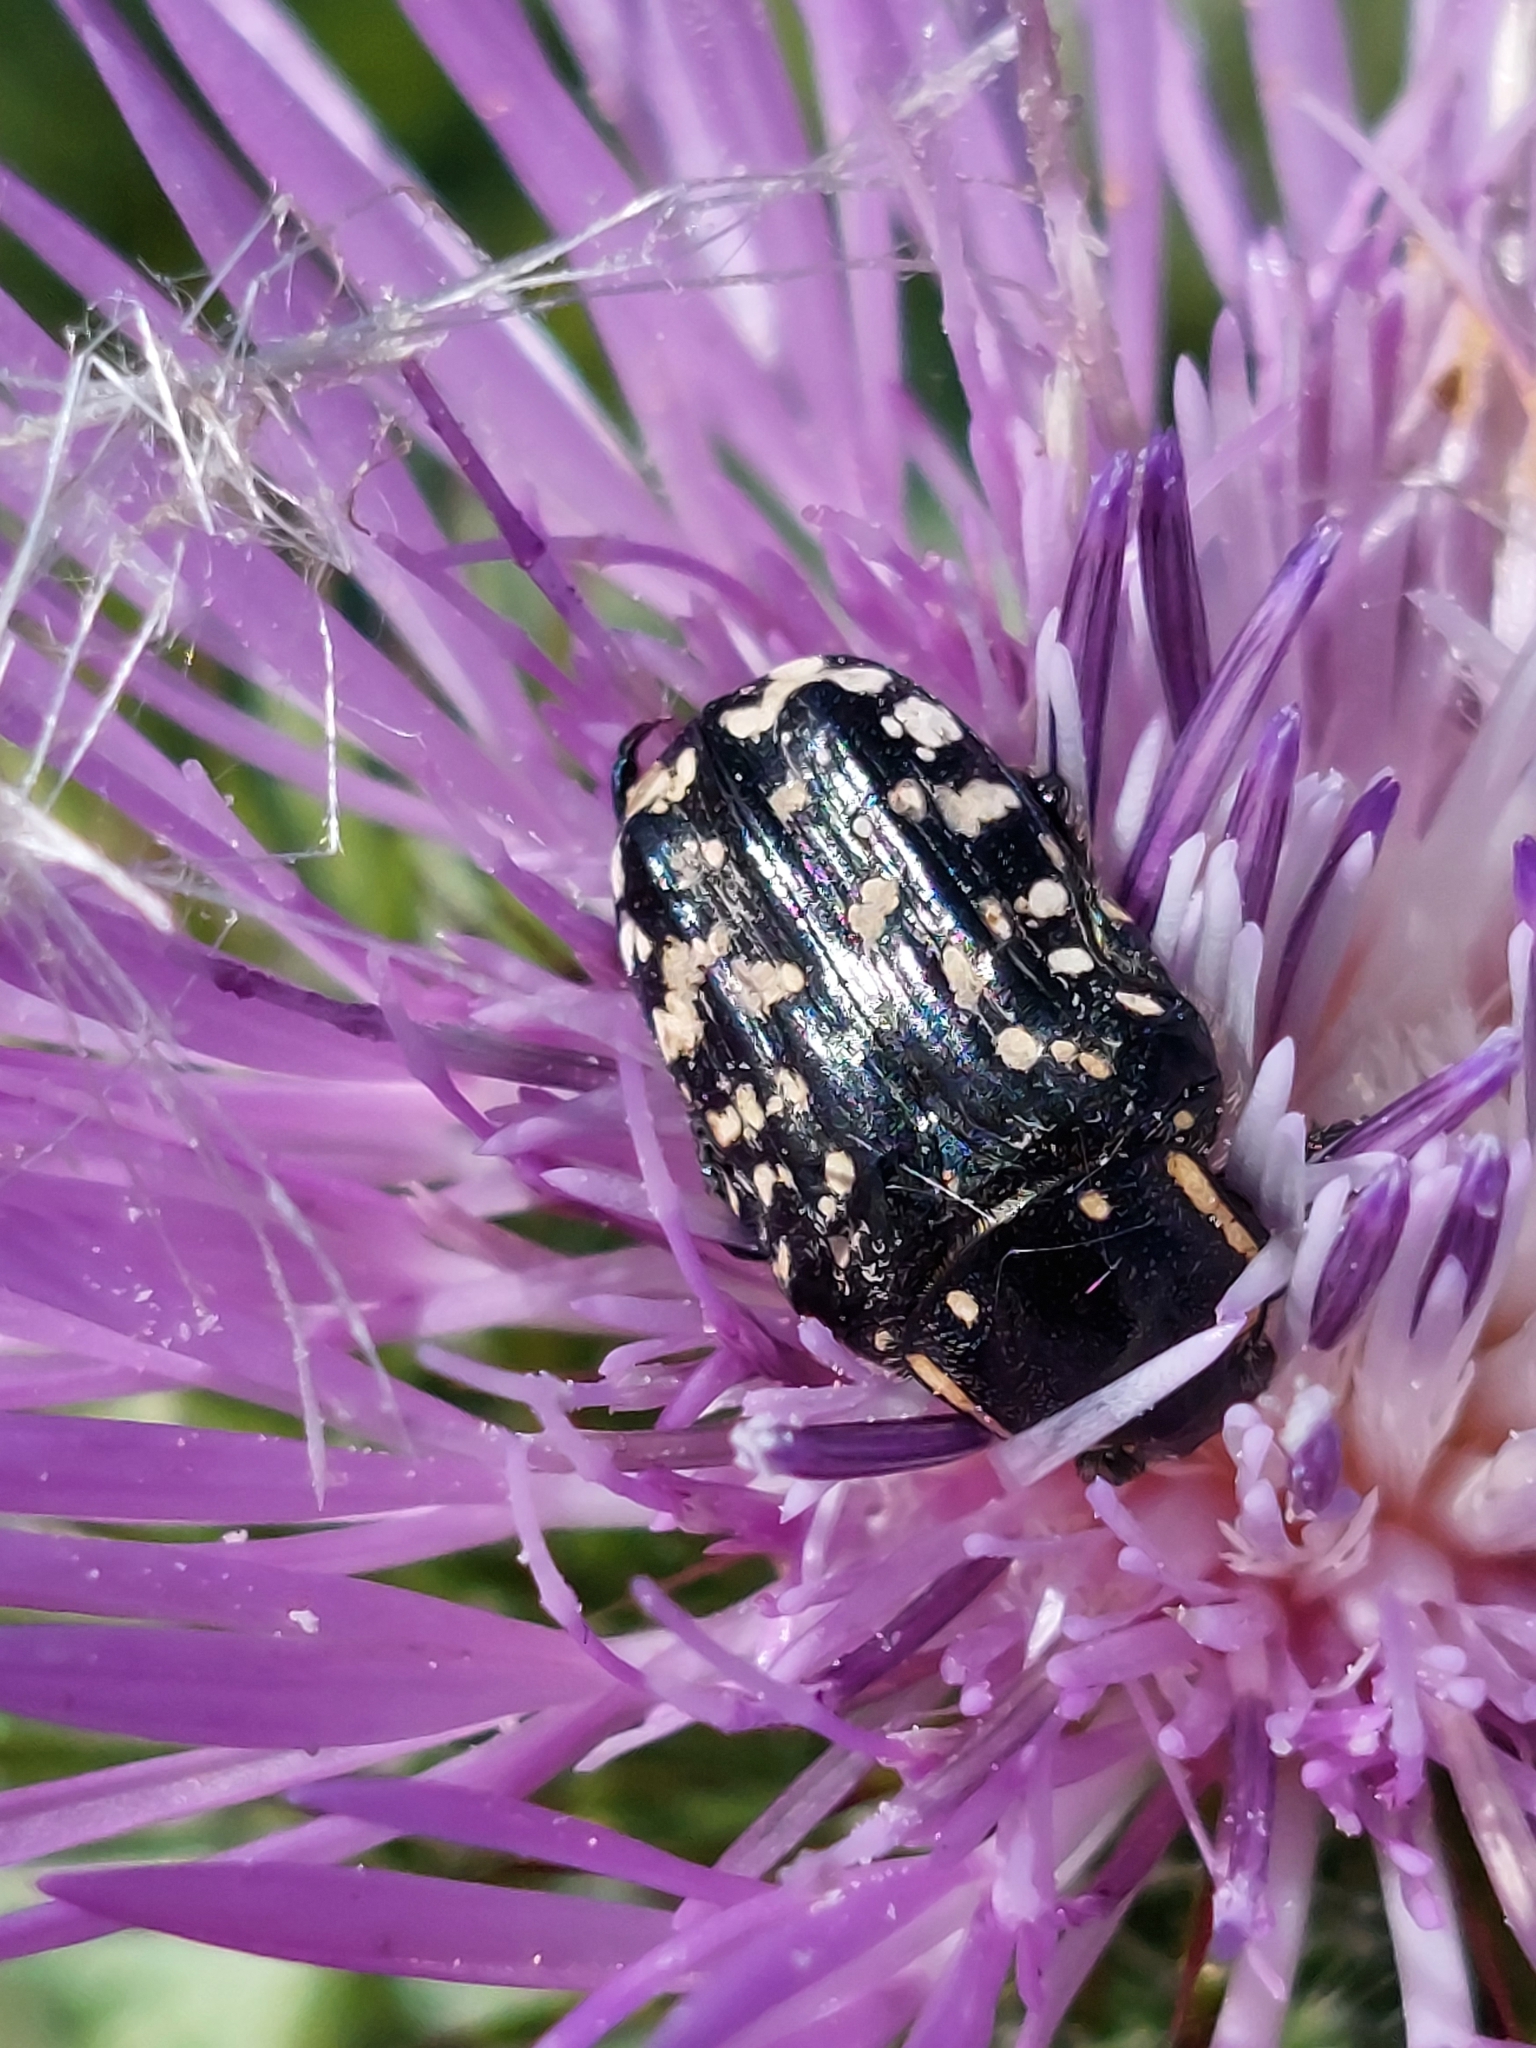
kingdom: Animalia
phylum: Arthropoda
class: Insecta
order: Coleoptera
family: Scarabaeidae
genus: Oxythyrea
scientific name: Oxythyrea cinctella
